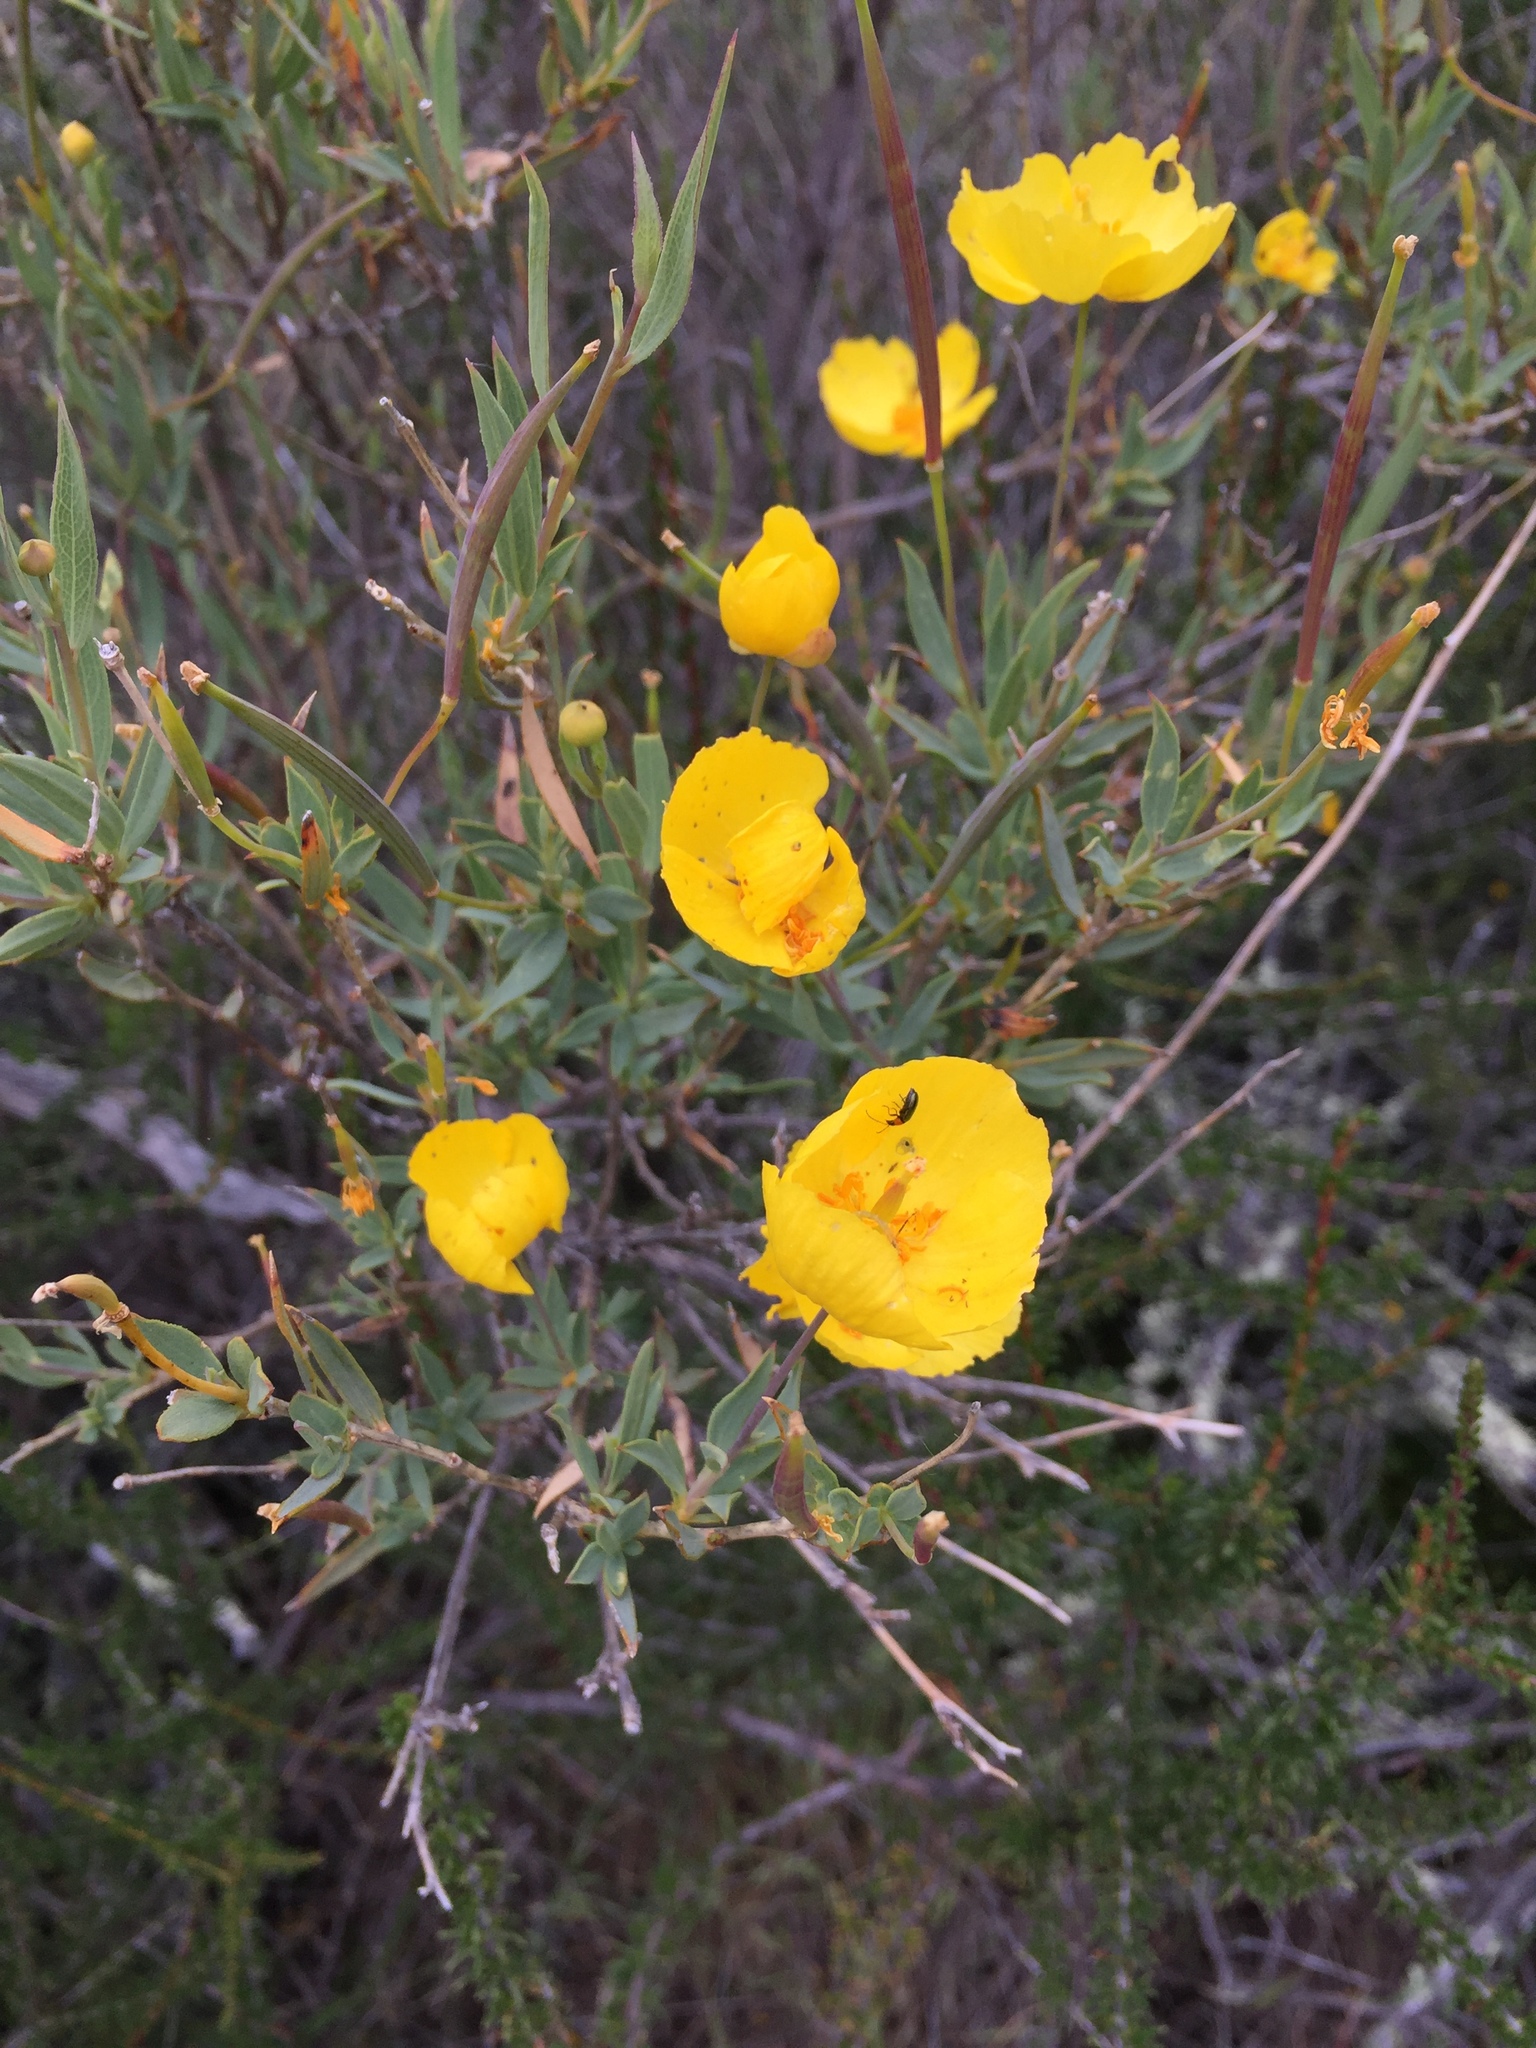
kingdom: Plantae
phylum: Tracheophyta
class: Magnoliopsida
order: Ranunculales
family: Papaveraceae
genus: Dendromecon
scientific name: Dendromecon rigida
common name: Tree poppy
